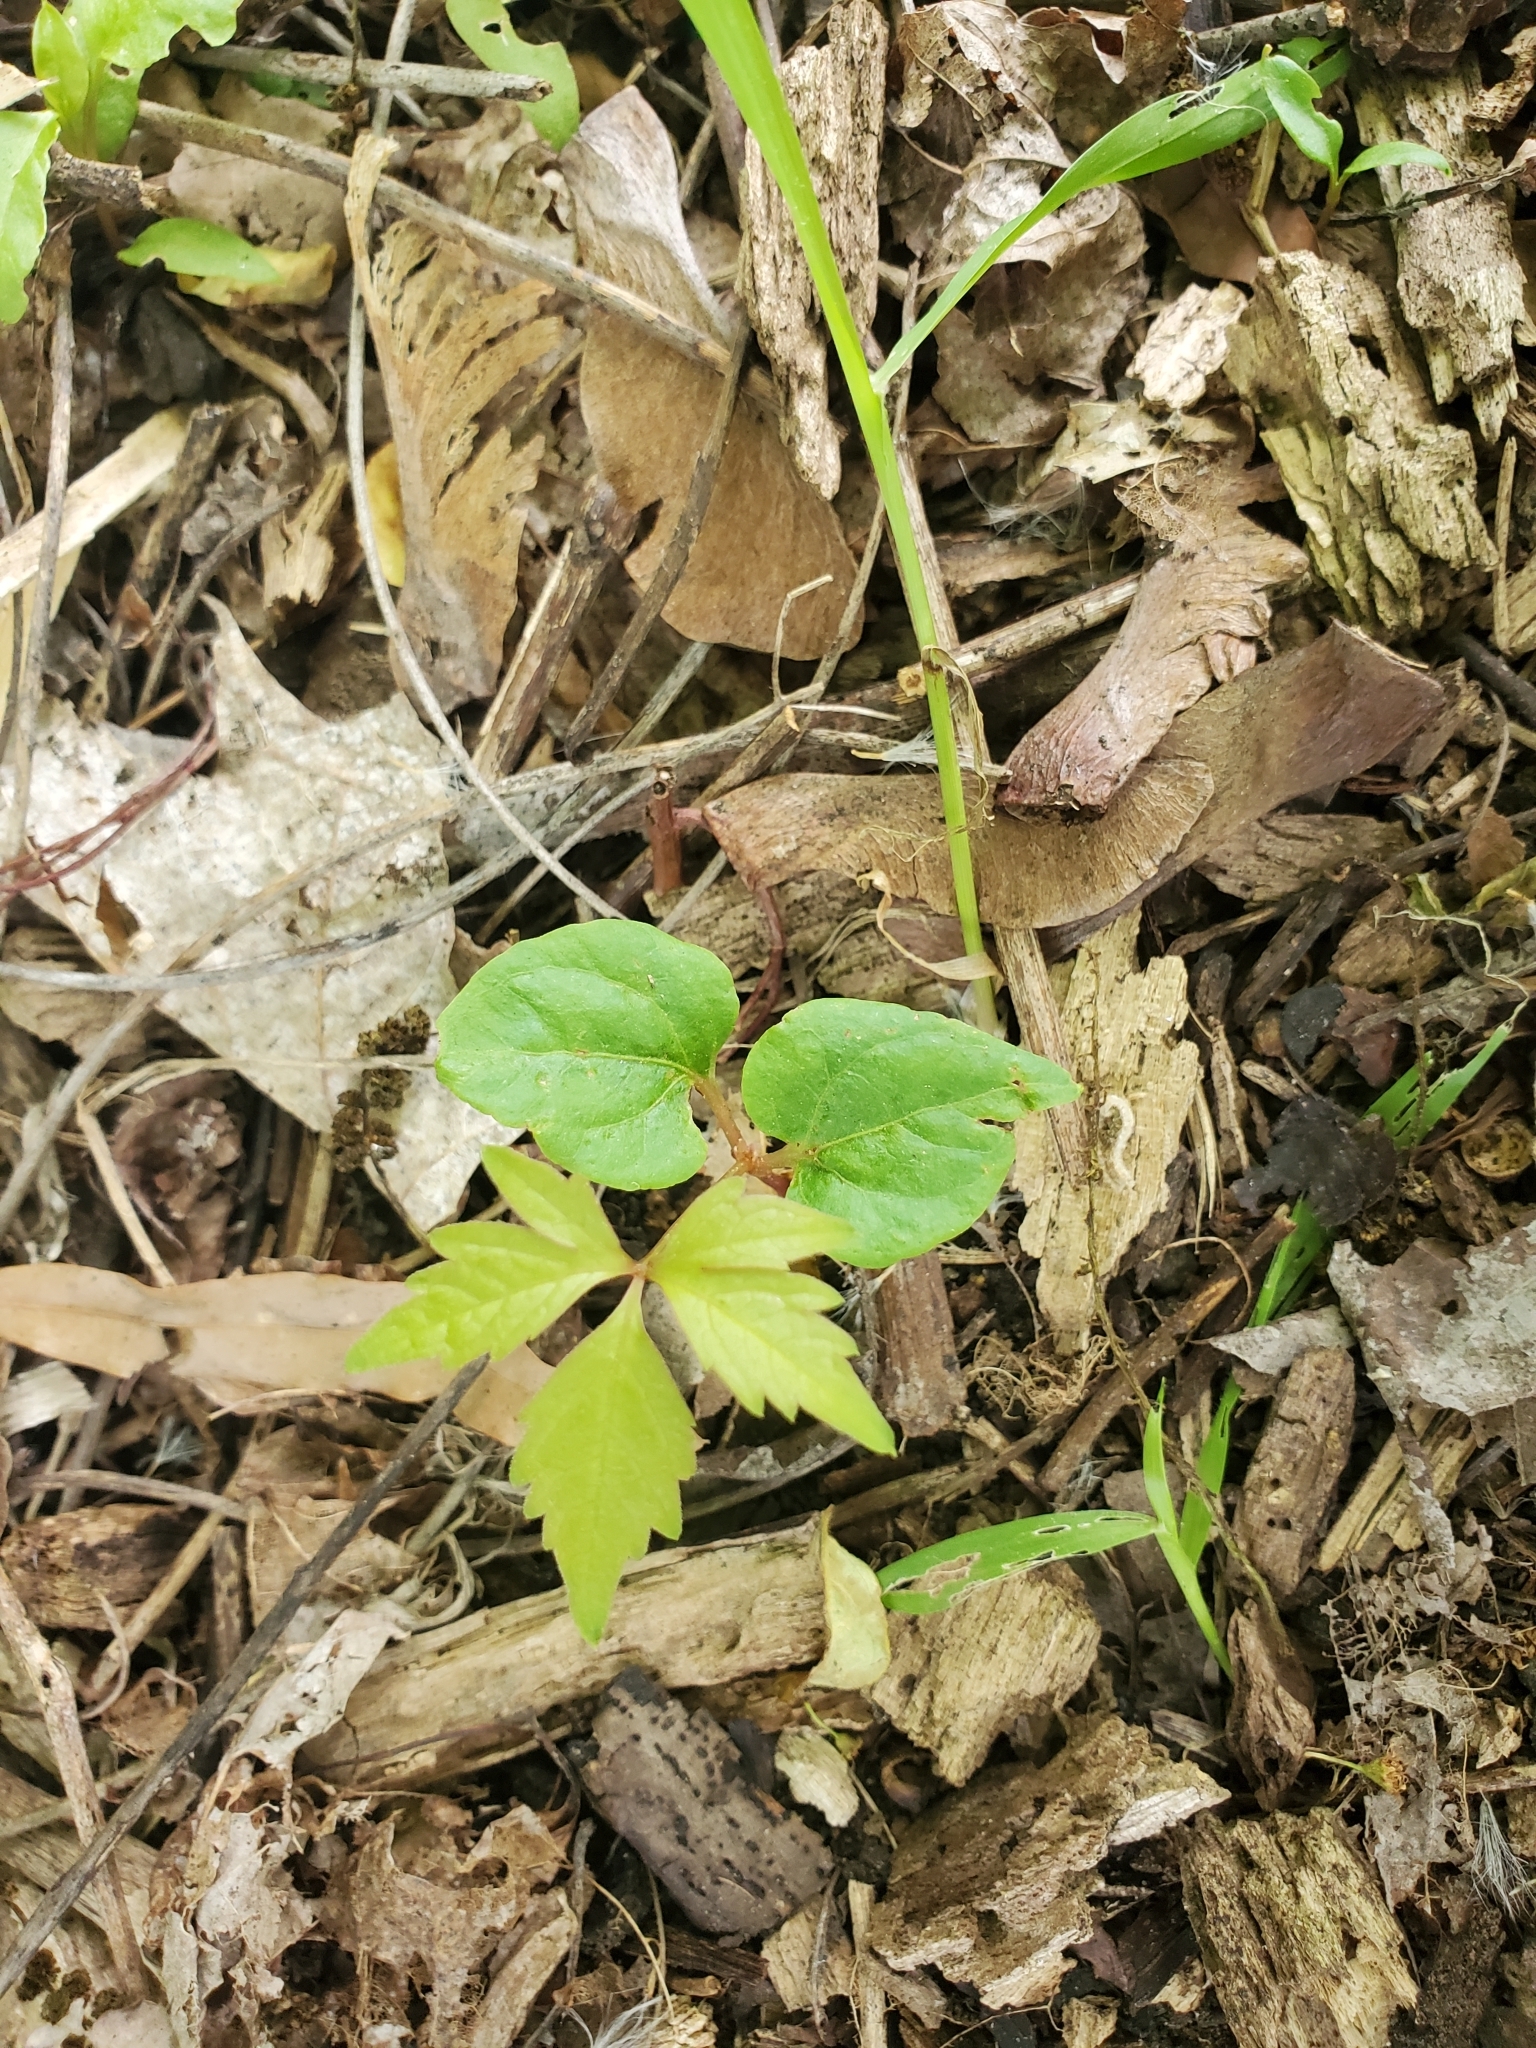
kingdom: Plantae
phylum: Tracheophyta
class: Magnoliopsida
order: Vitales
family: Vitaceae
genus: Parthenocissus
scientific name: Parthenocissus quinquefolia
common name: Virginia-creeper
